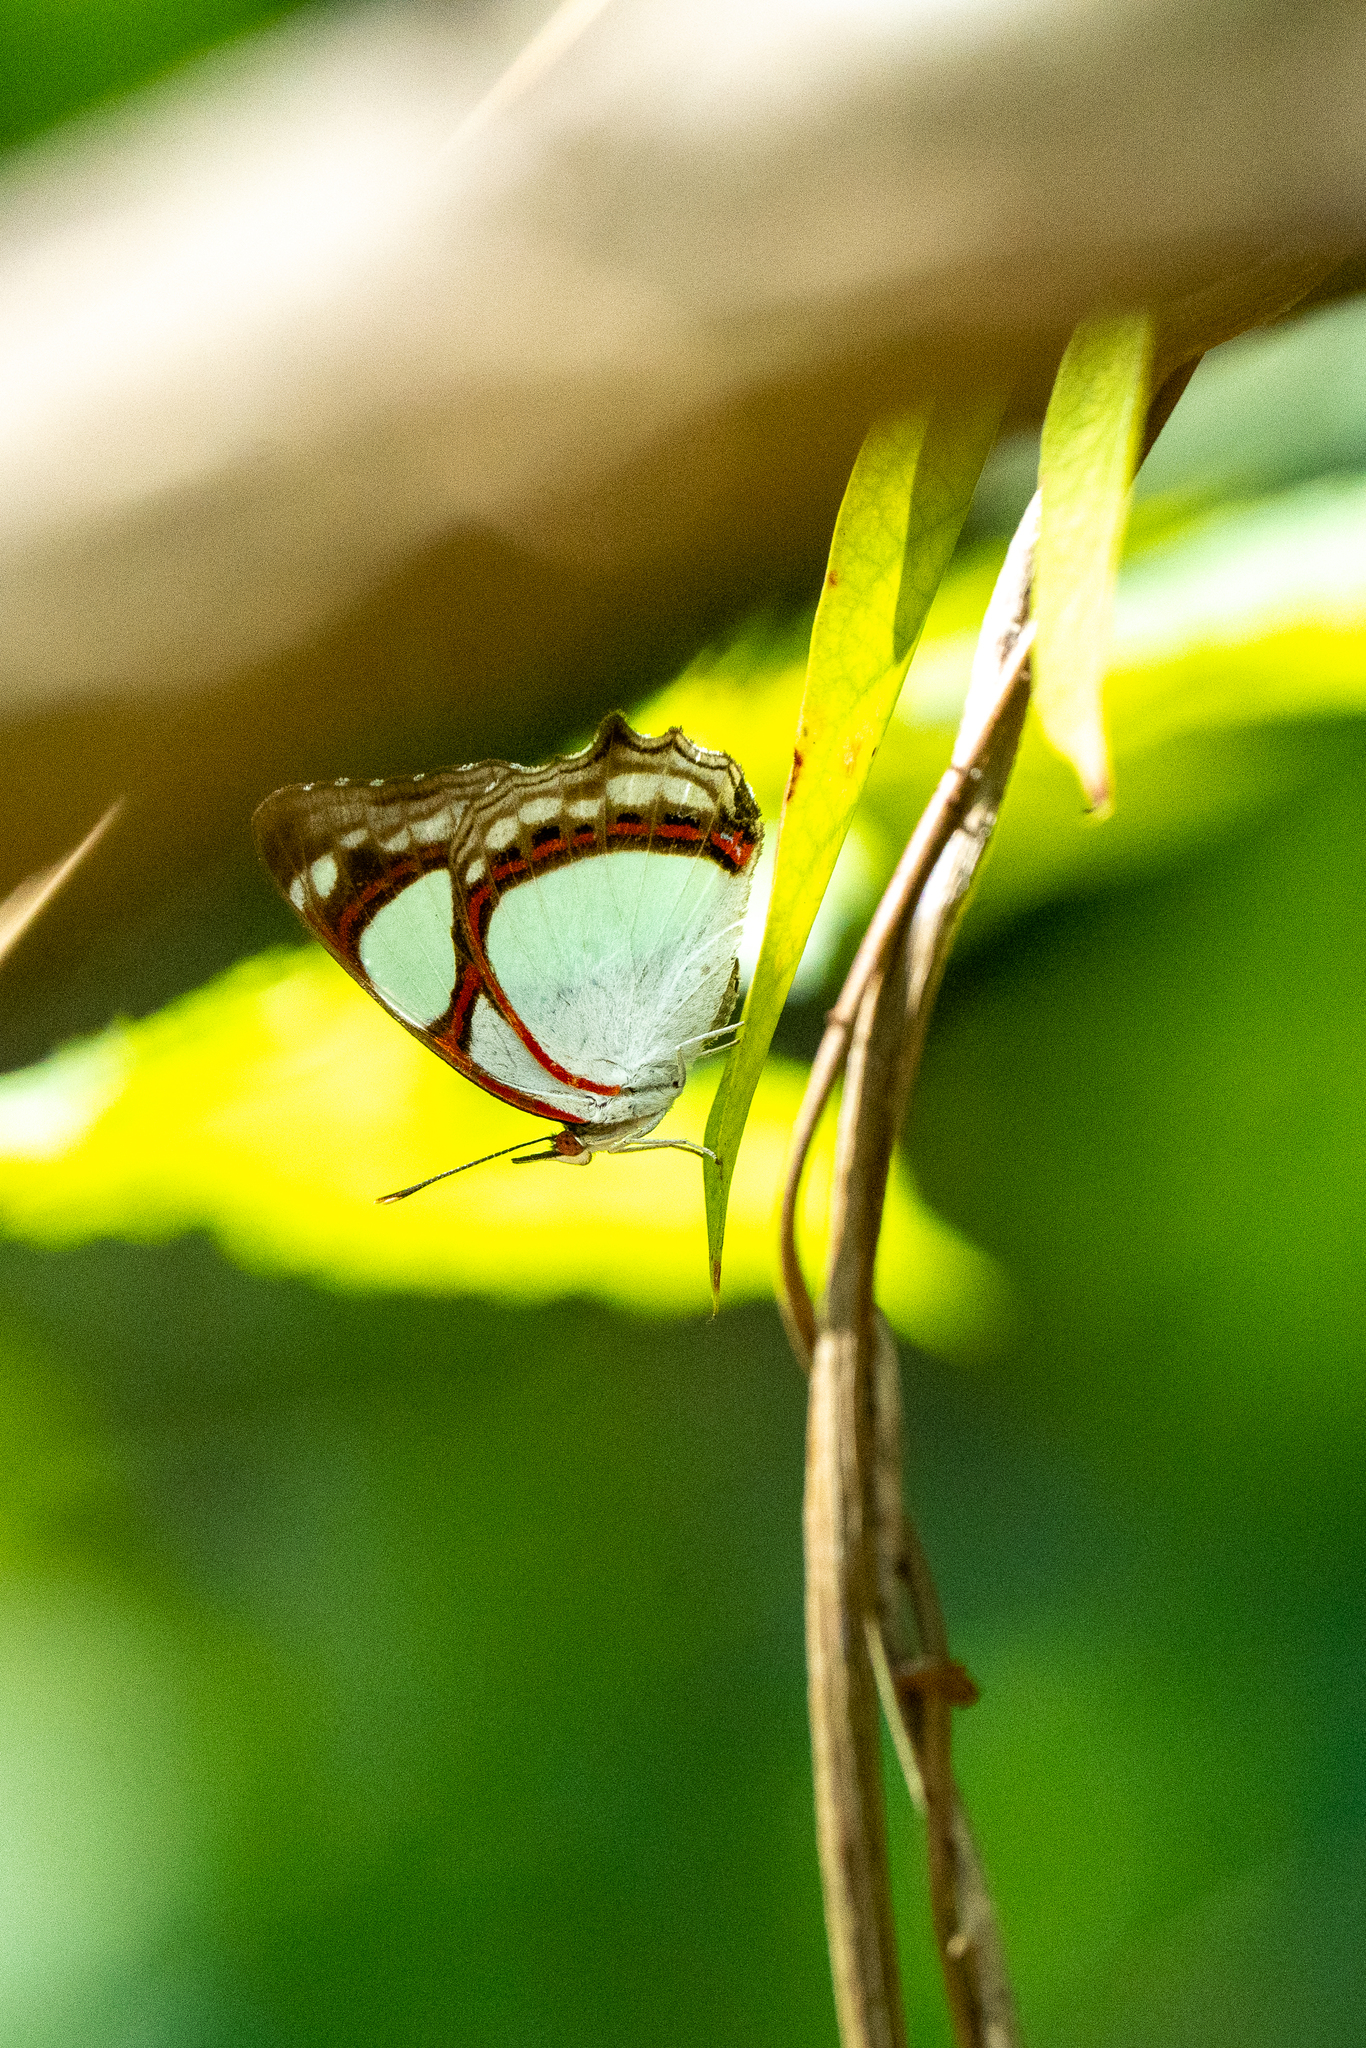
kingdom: Animalia
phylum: Arthropoda
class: Insecta
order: Lepidoptera
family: Nymphalidae
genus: Pyrrhogyra
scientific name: Pyrrhogyra neaerea
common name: Leading red-ring
